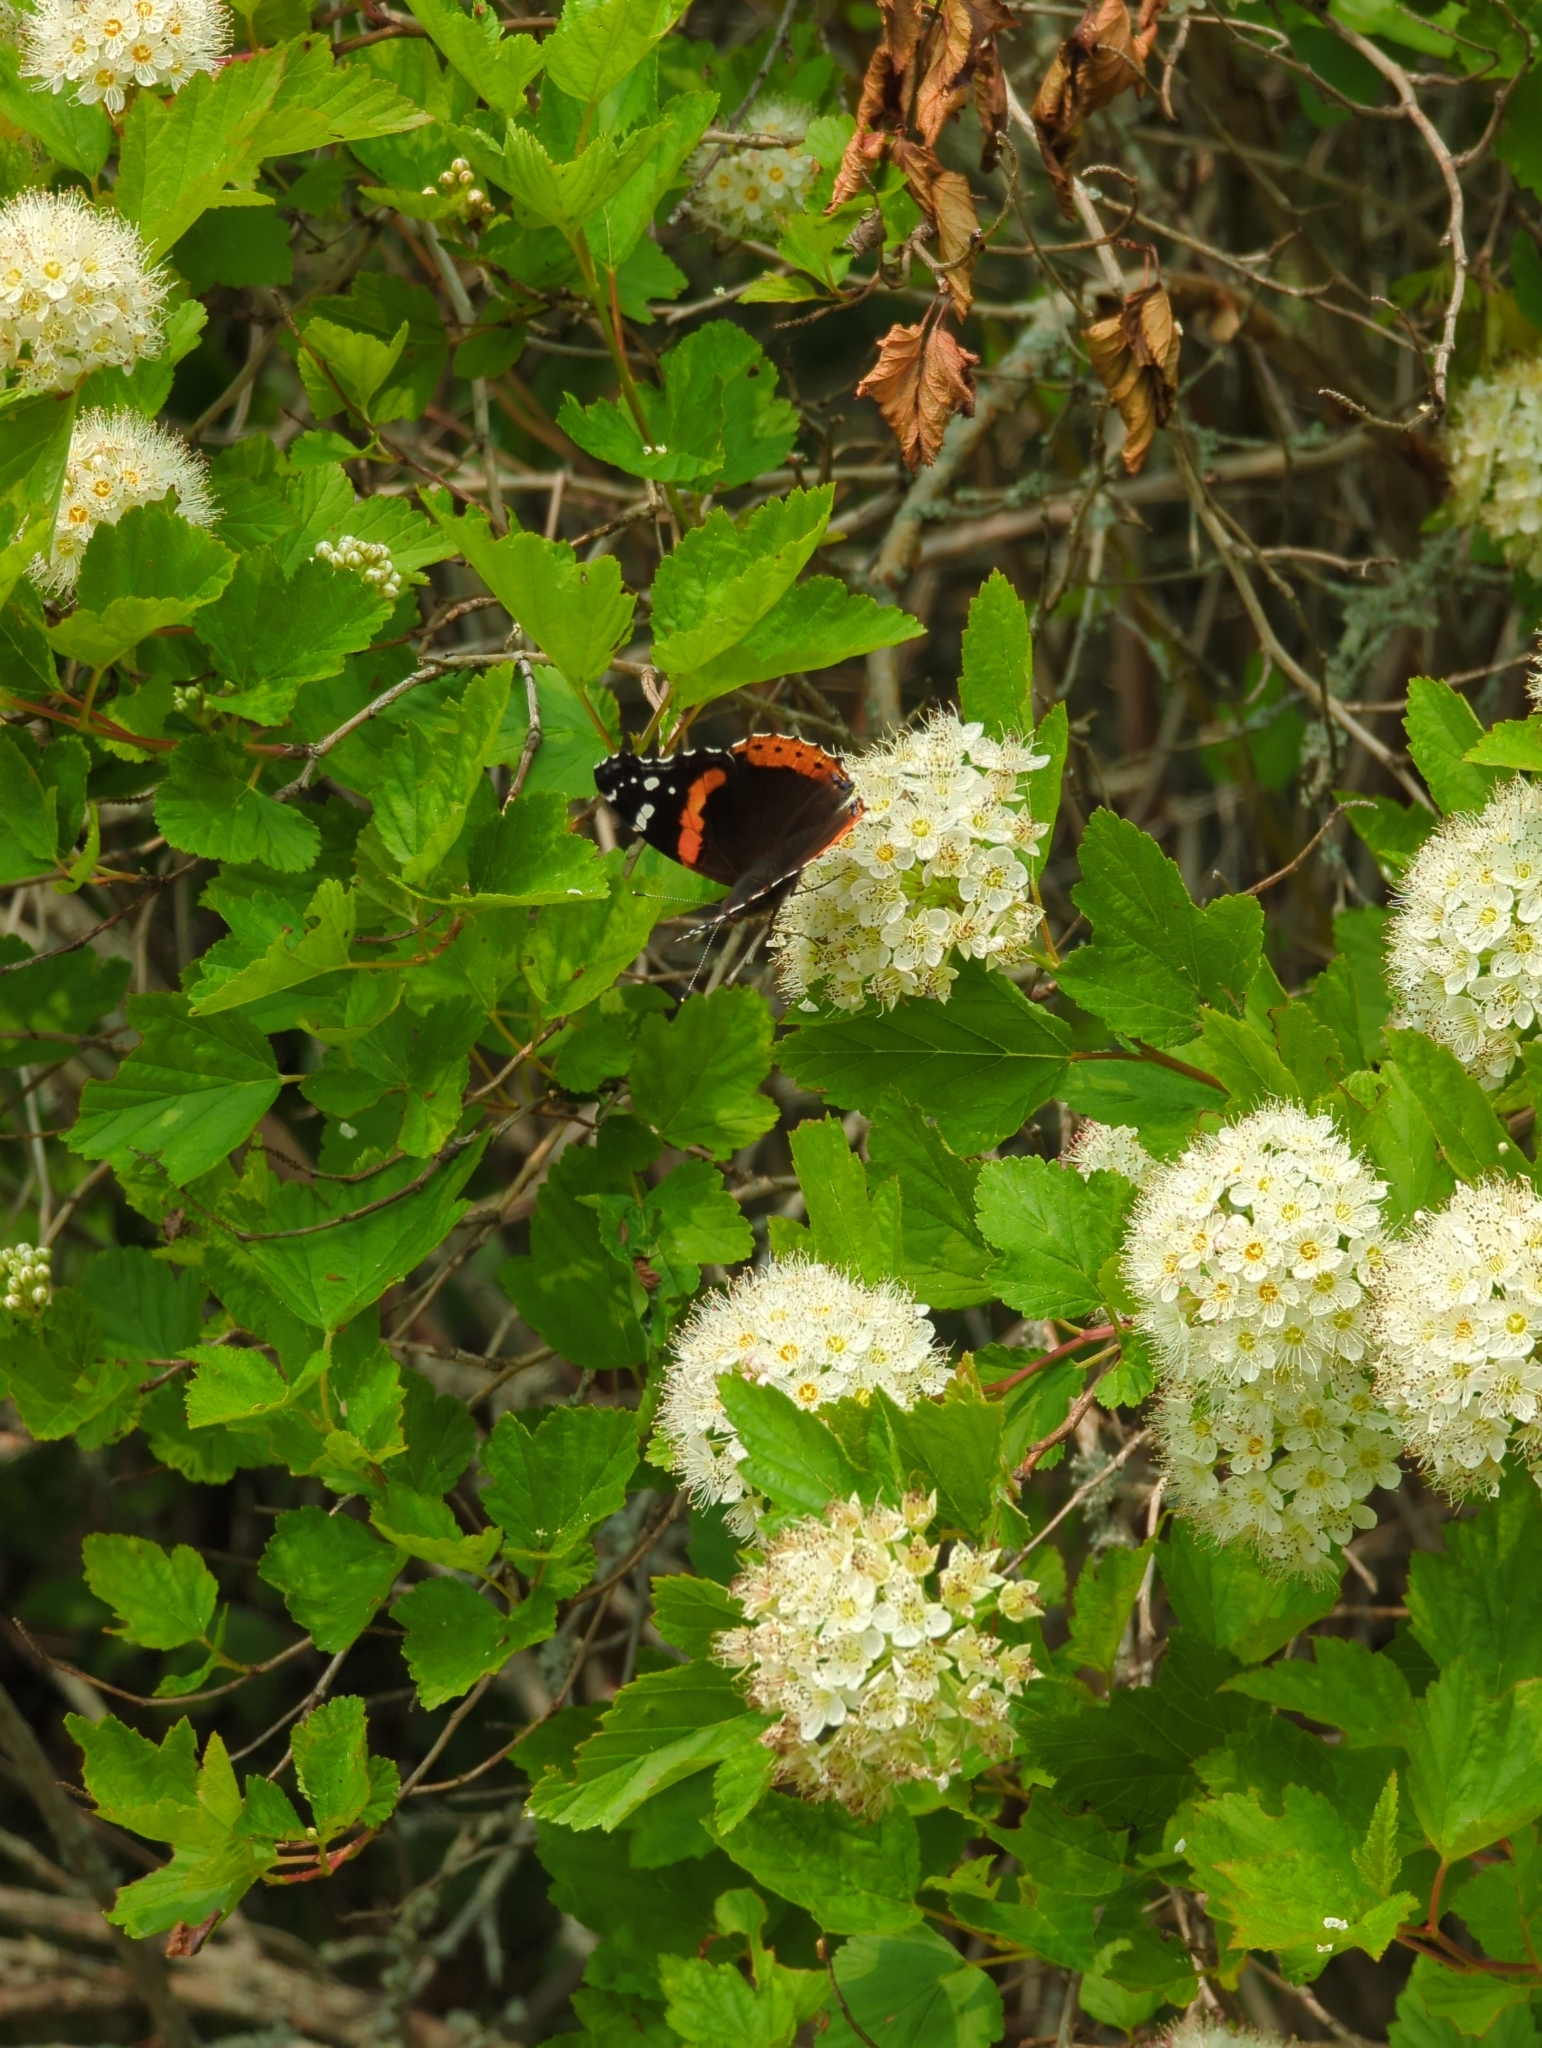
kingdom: Animalia
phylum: Arthropoda
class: Insecta
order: Lepidoptera
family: Nymphalidae
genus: Vanessa
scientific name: Vanessa atalanta
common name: Red admiral
